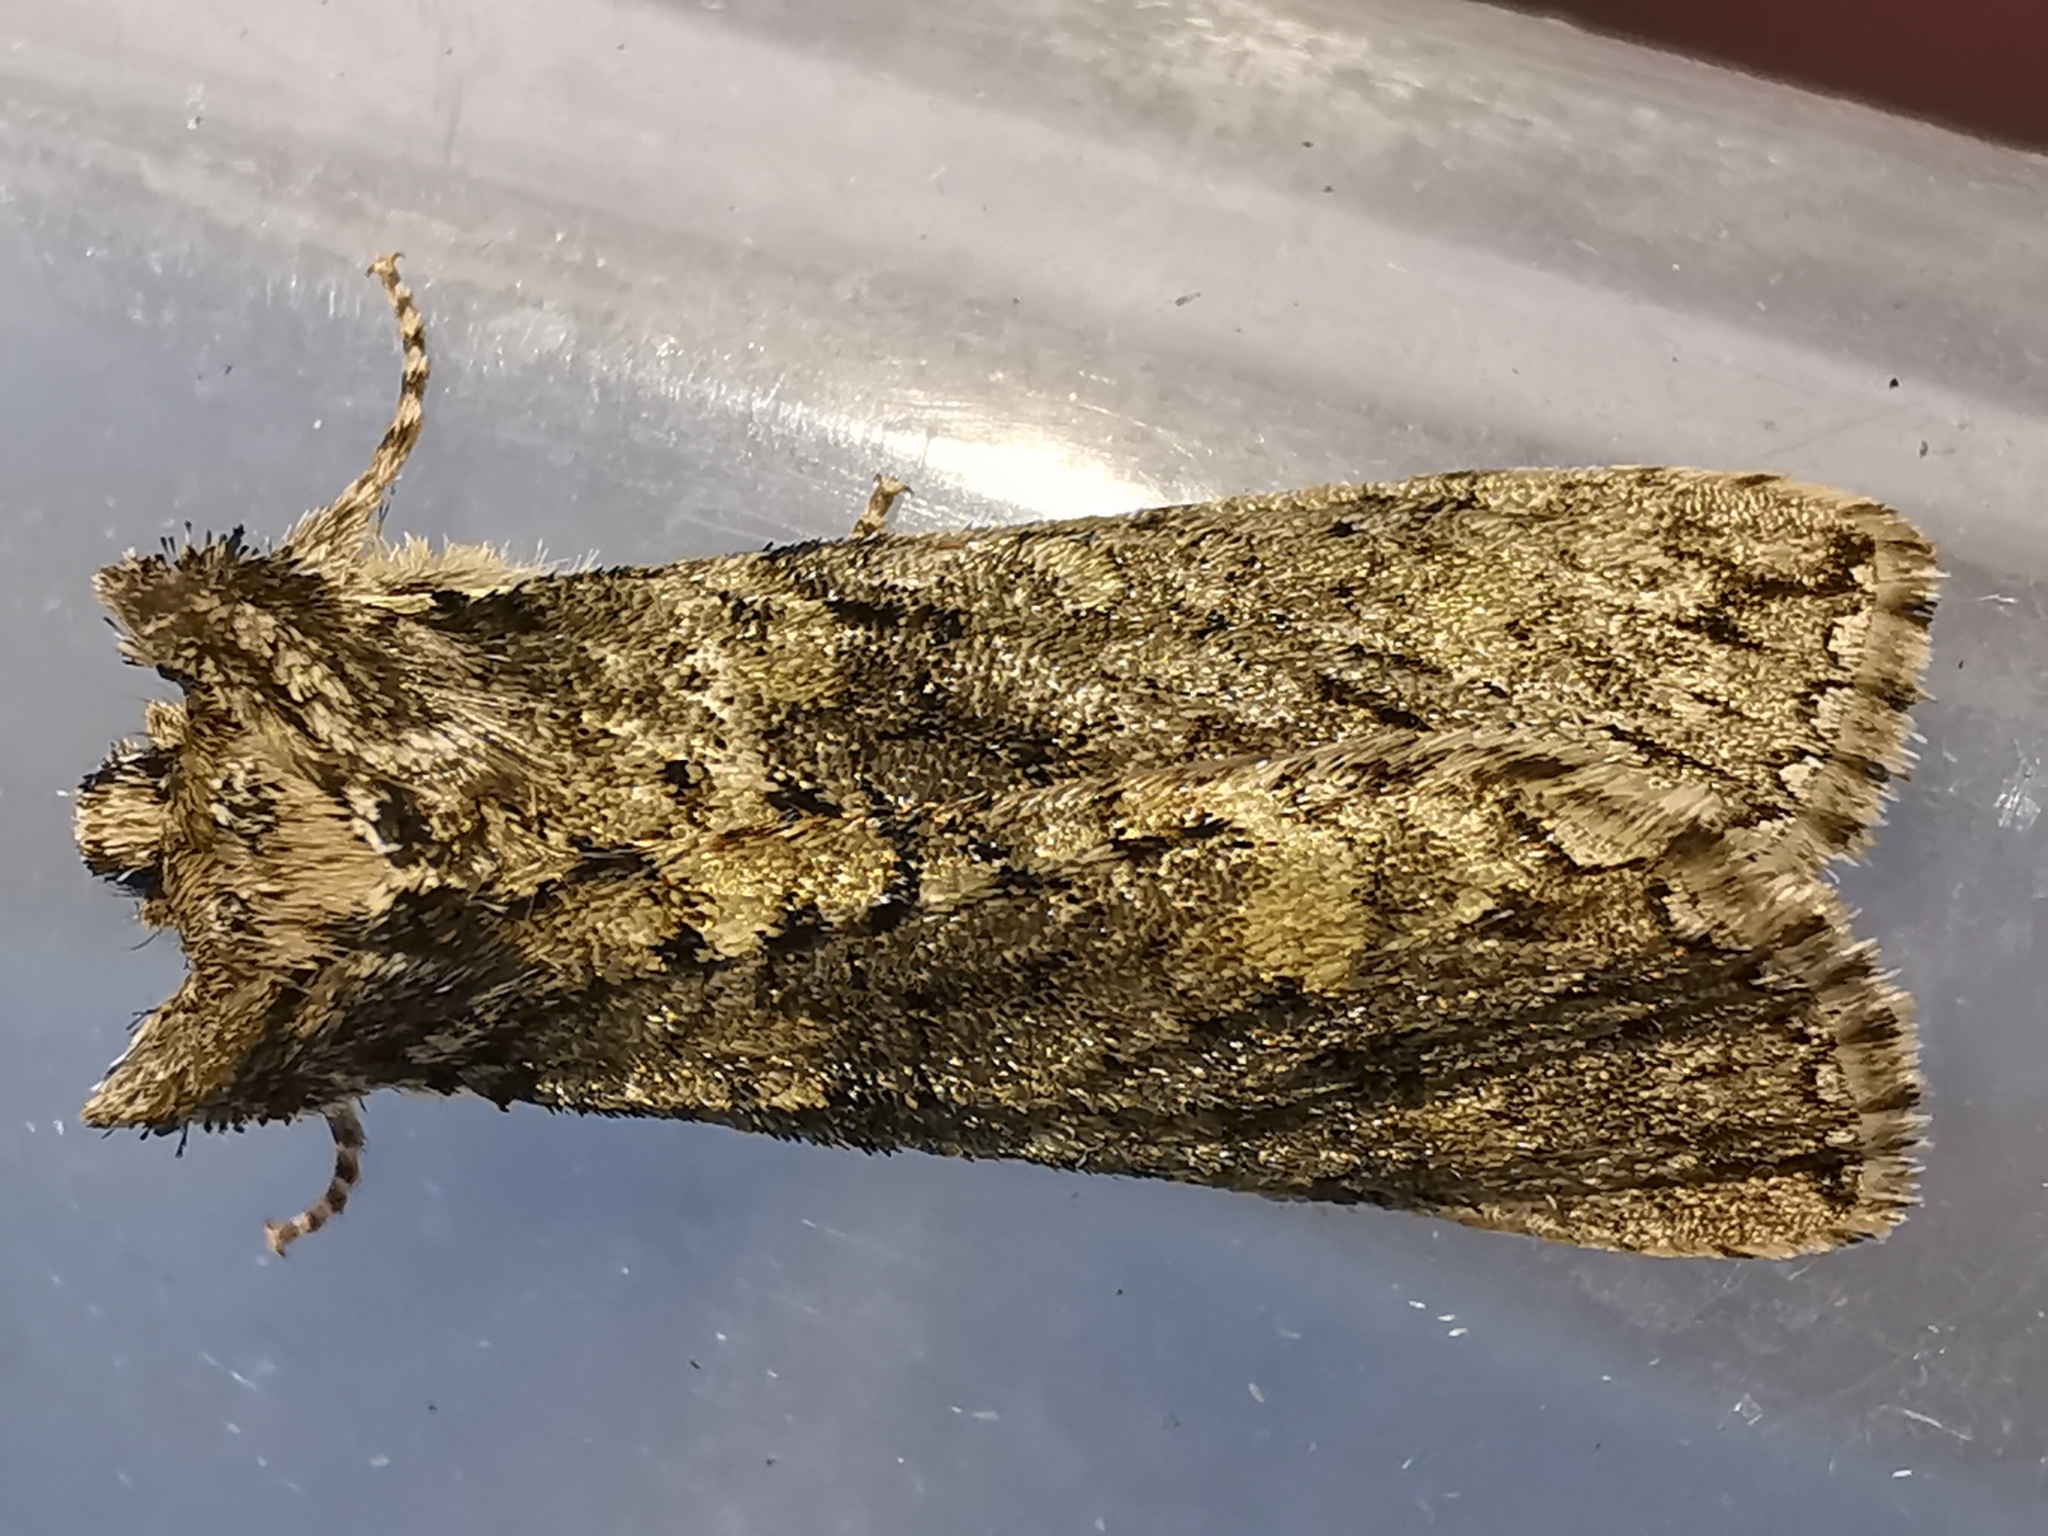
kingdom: Animalia
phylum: Arthropoda
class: Insecta
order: Lepidoptera
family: Drepanidae
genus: Polyploca
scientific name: Polyploca ridens
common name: Frosted green
